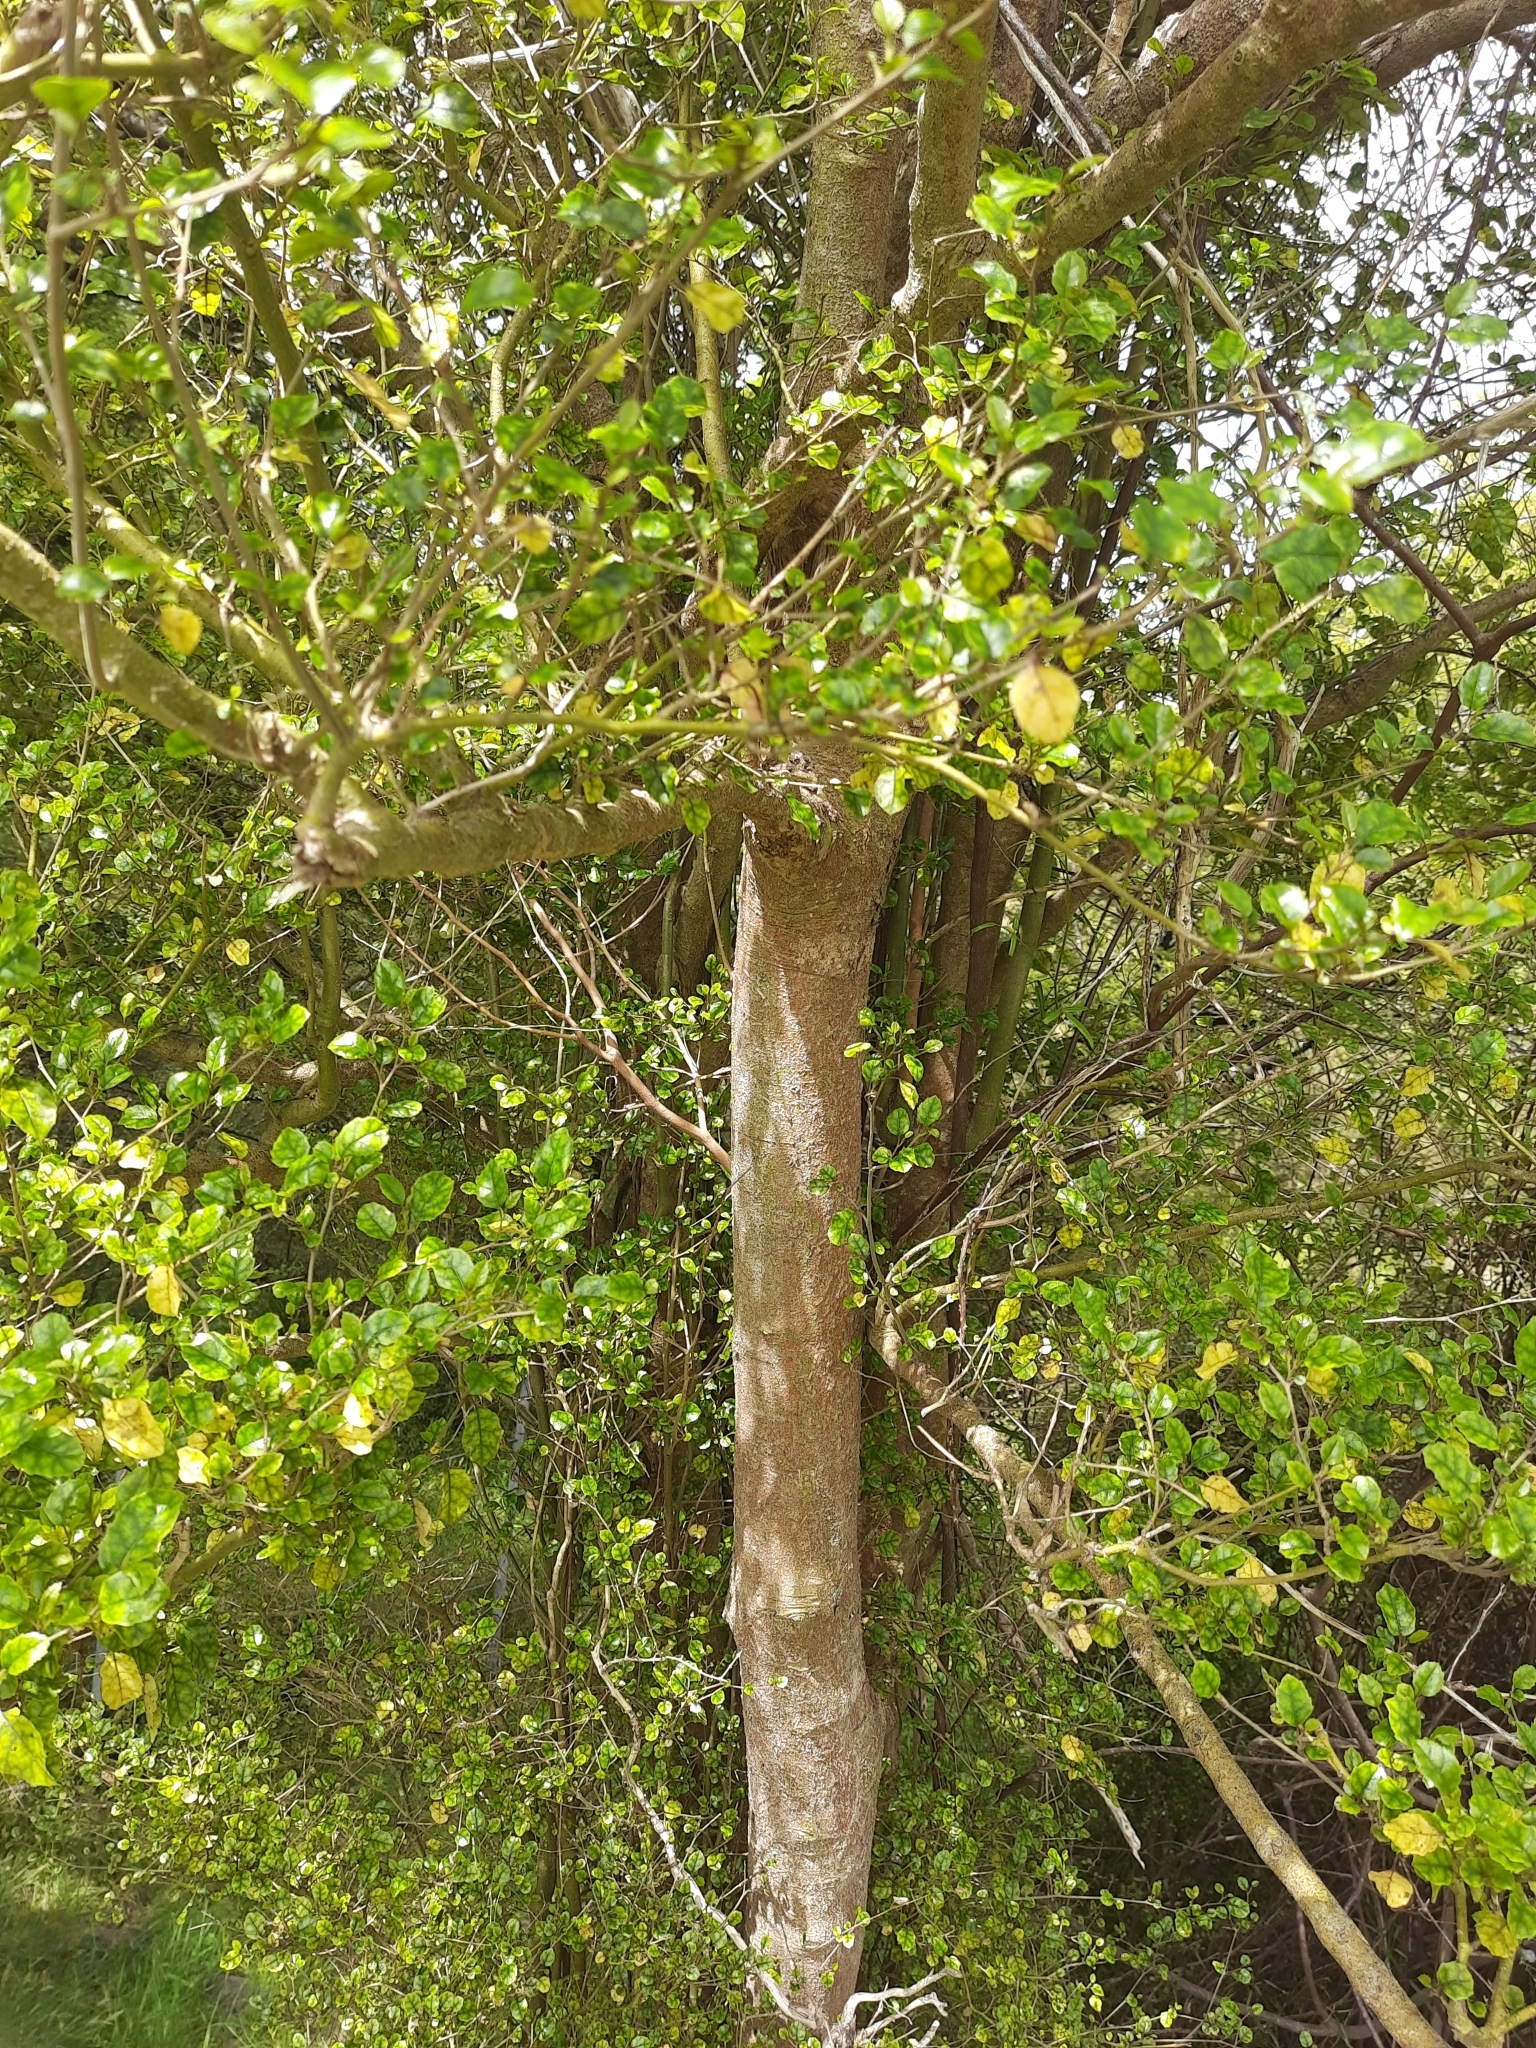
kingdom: Plantae
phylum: Tracheophyta
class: Magnoliopsida
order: Asterales
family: Rousseaceae
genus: Carpodetus
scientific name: Carpodetus serratus
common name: White mapau
